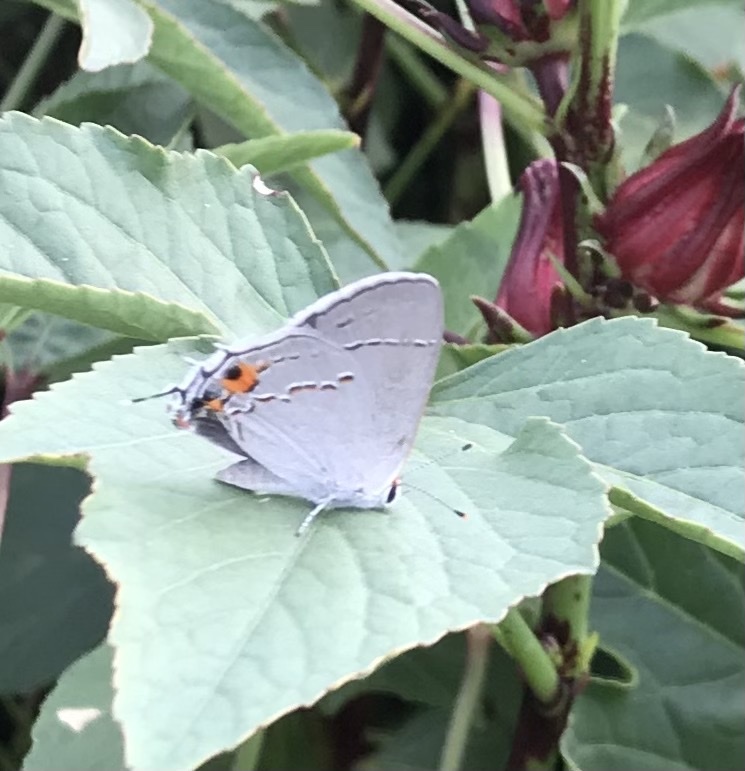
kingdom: Animalia
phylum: Arthropoda
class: Insecta
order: Lepidoptera
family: Lycaenidae
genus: Strymon
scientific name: Strymon melinus
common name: Gray hairstreak
